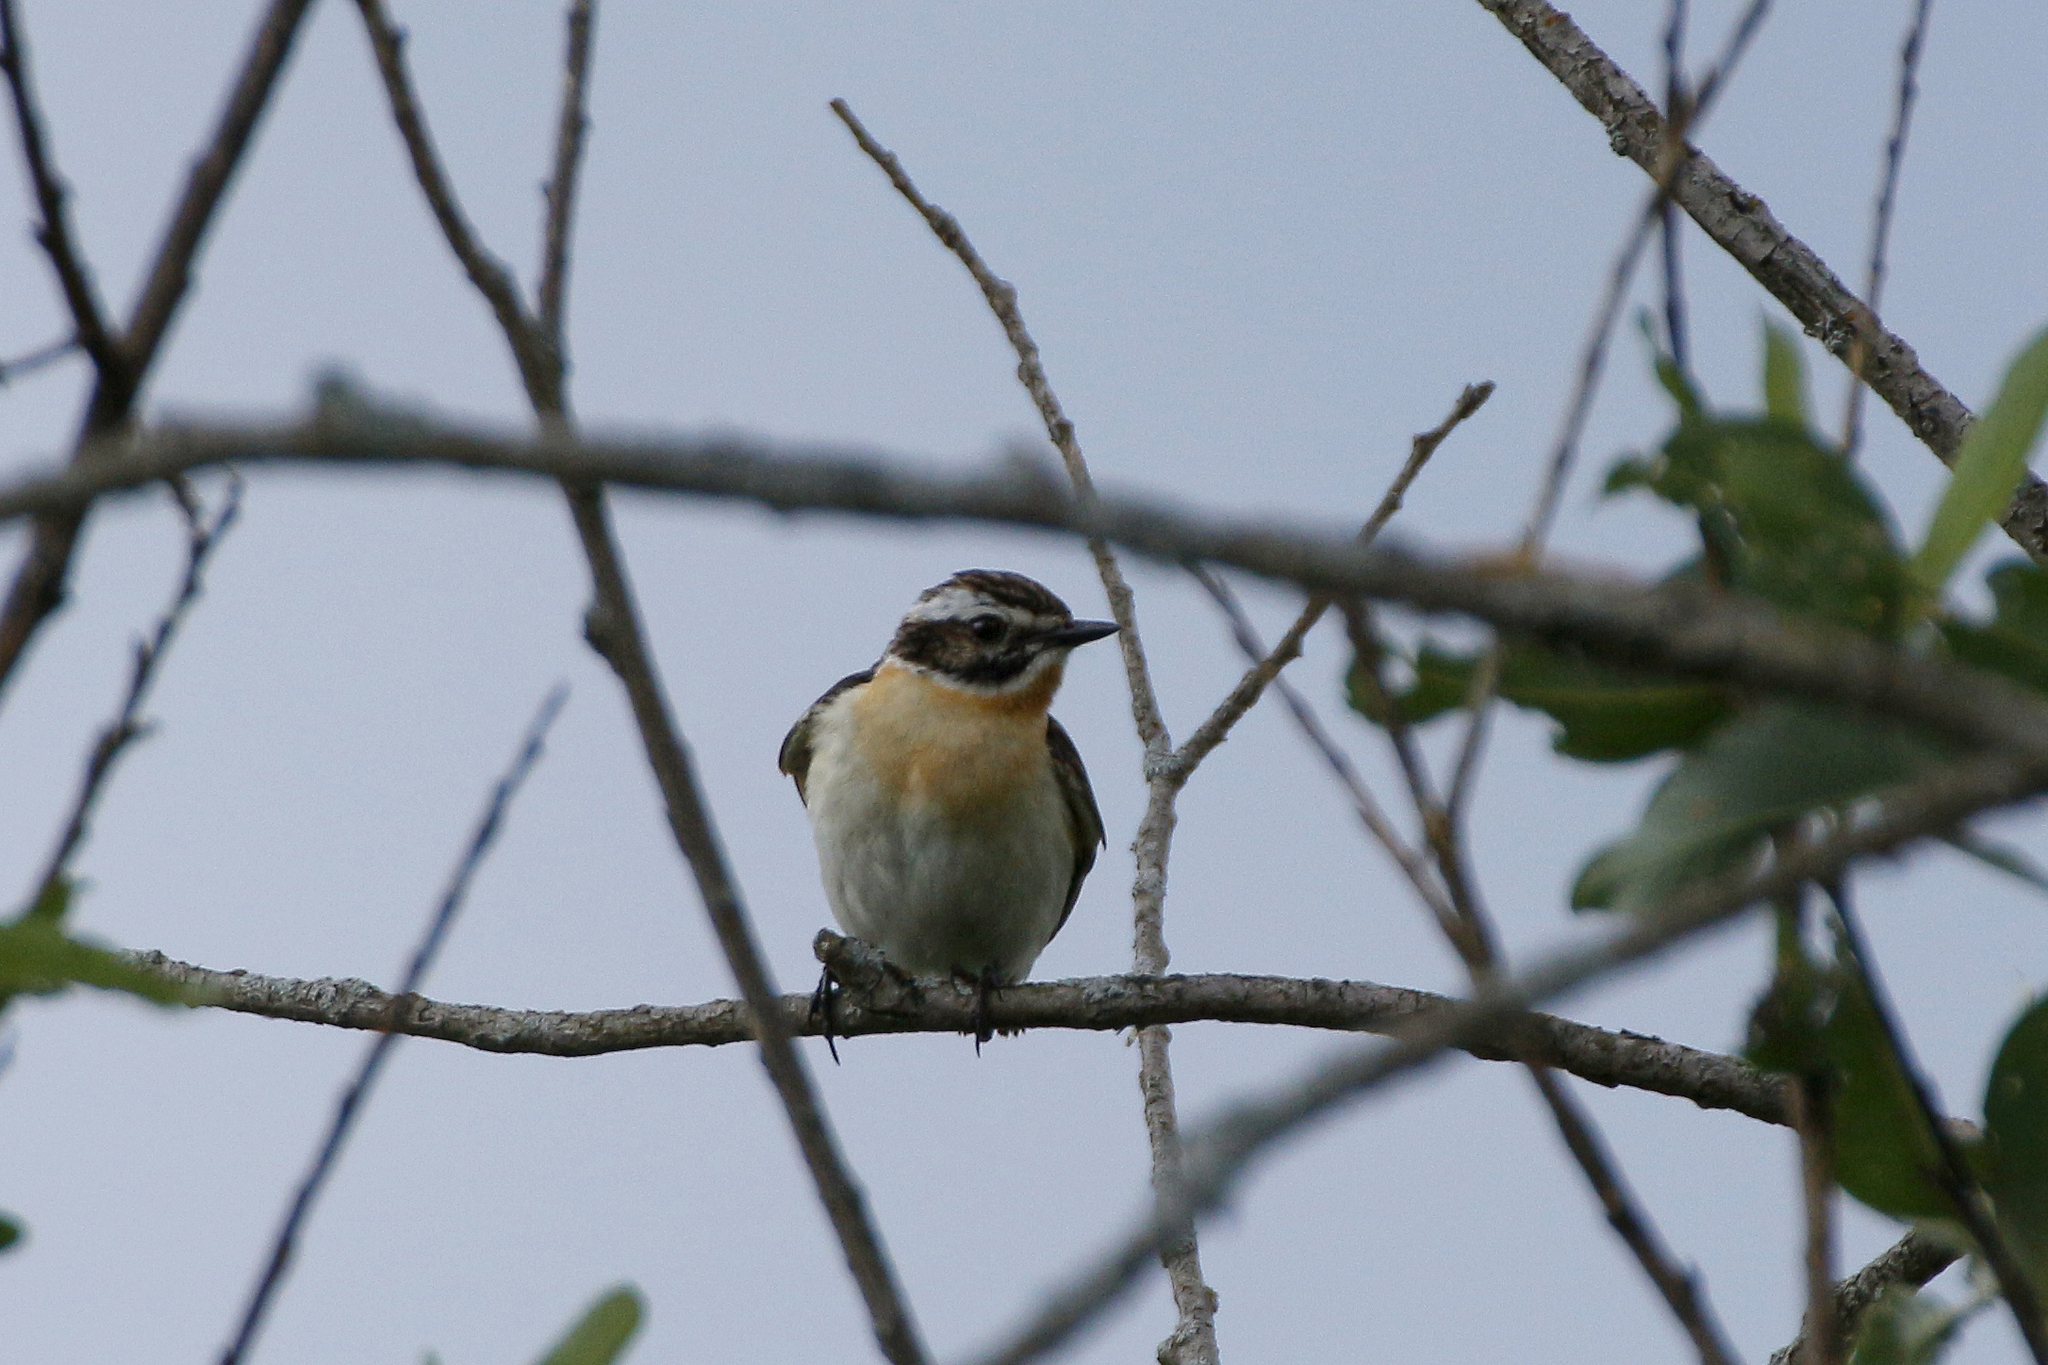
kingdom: Animalia
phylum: Chordata
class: Aves
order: Passeriformes
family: Muscicapidae
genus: Saxicola
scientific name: Saxicola rubetra
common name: Whinchat
